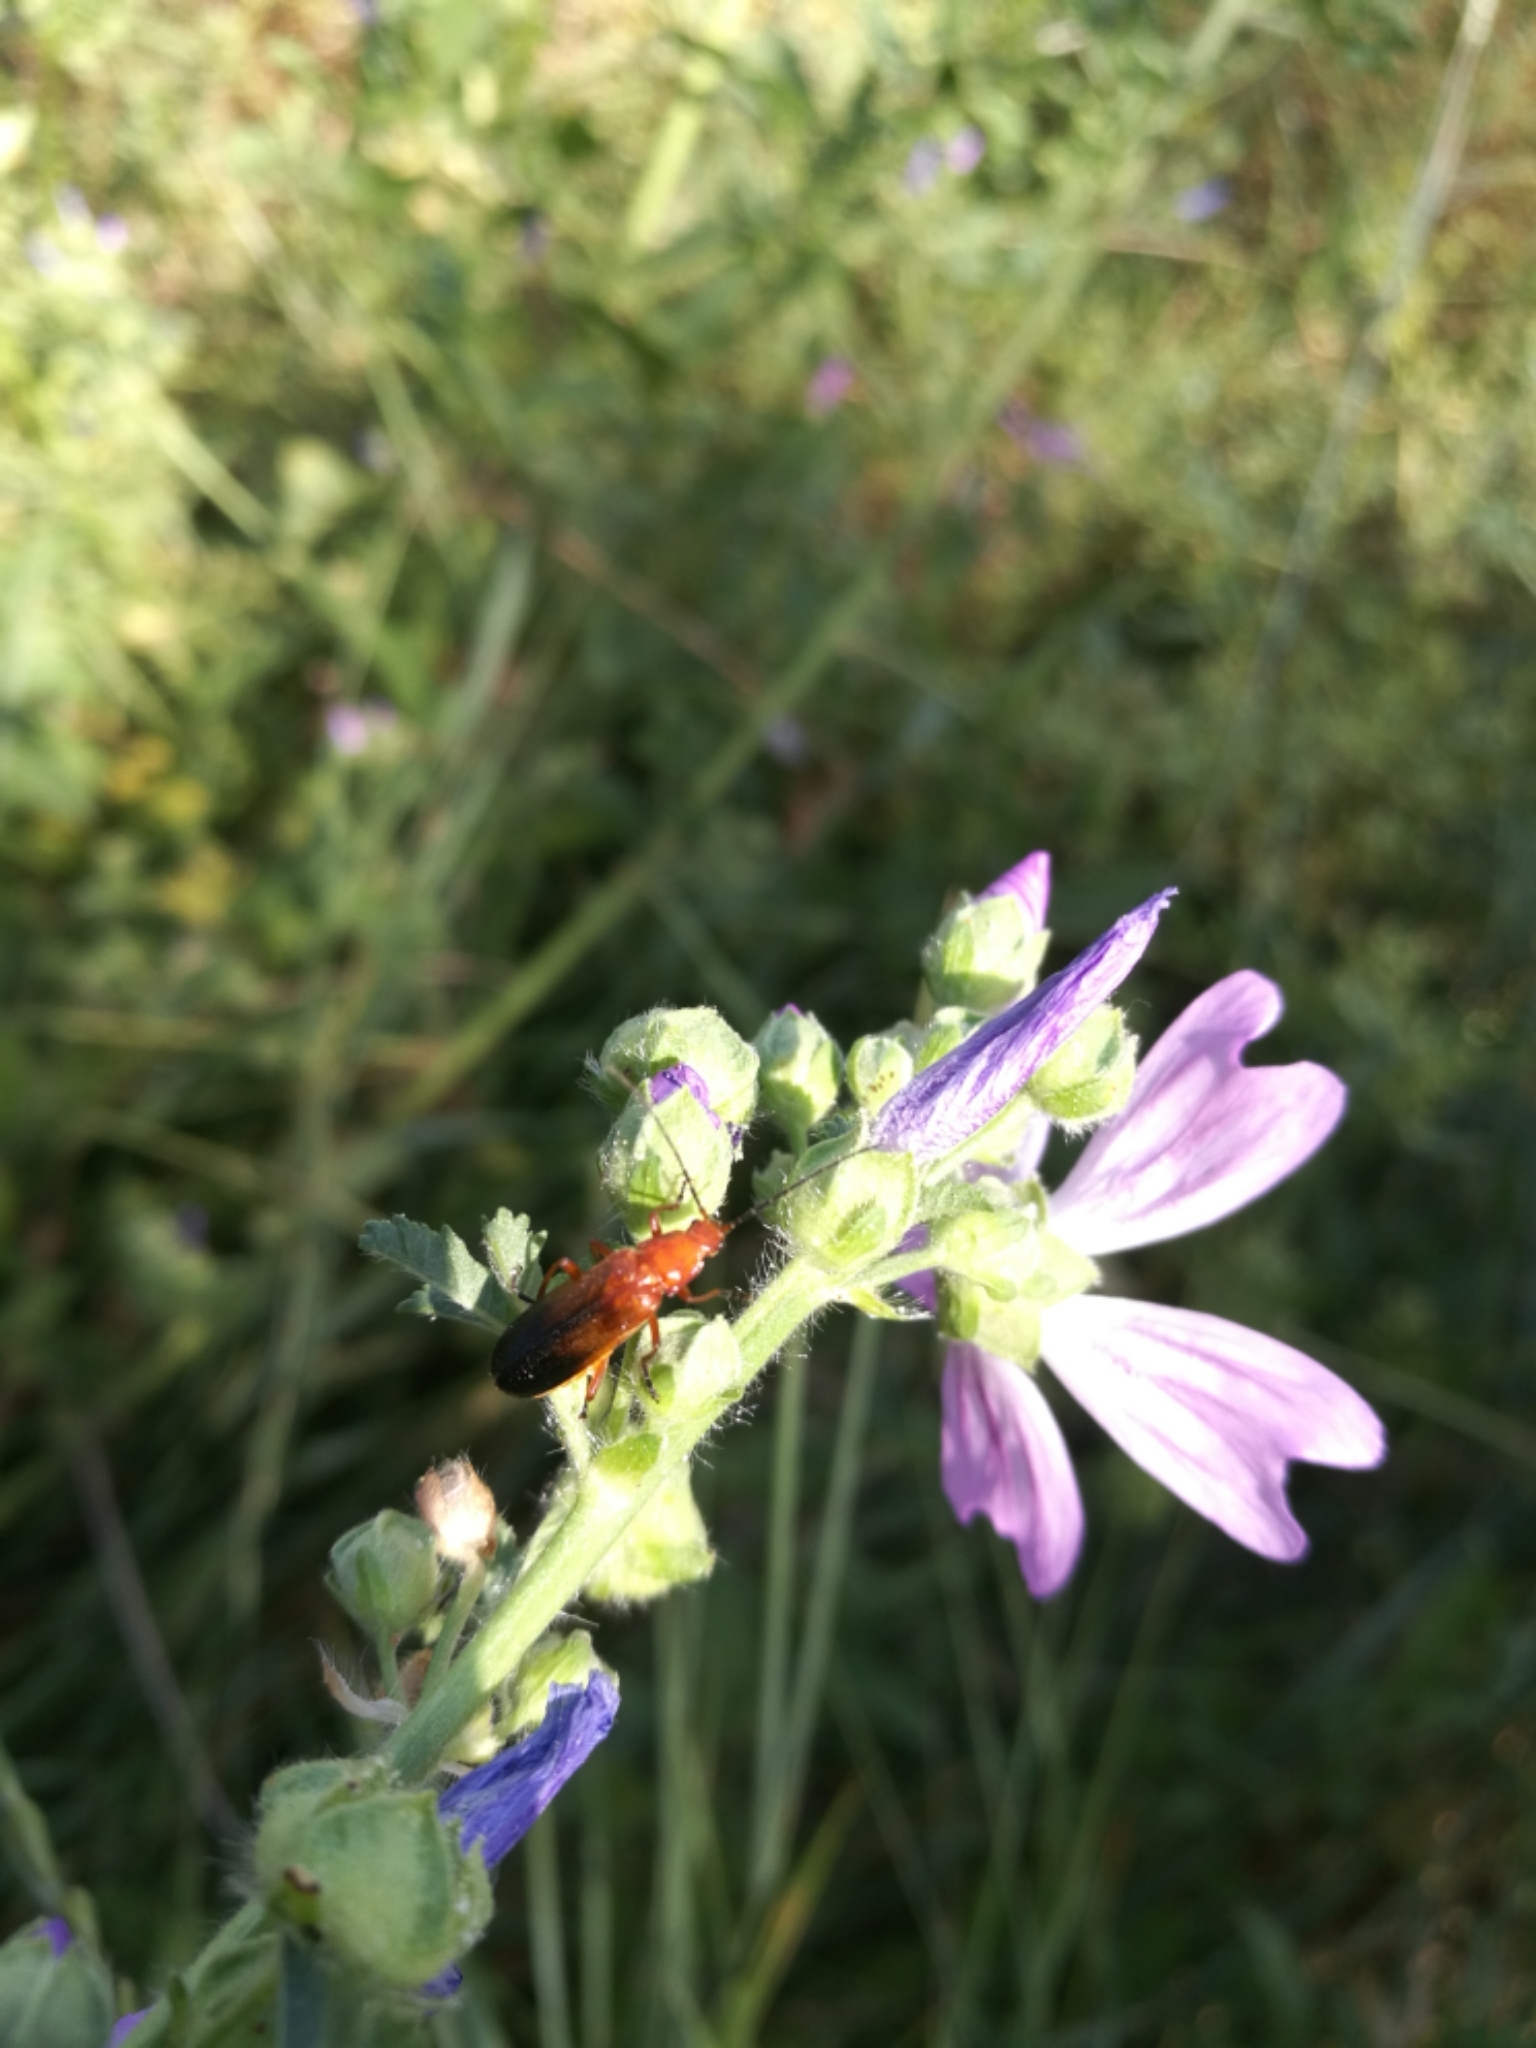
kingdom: Animalia
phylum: Arthropoda
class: Insecta
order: Coleoptera
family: Cantharidae
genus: Rhagonycha
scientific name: Rhagonycha fulva
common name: Common red soldier beetle
